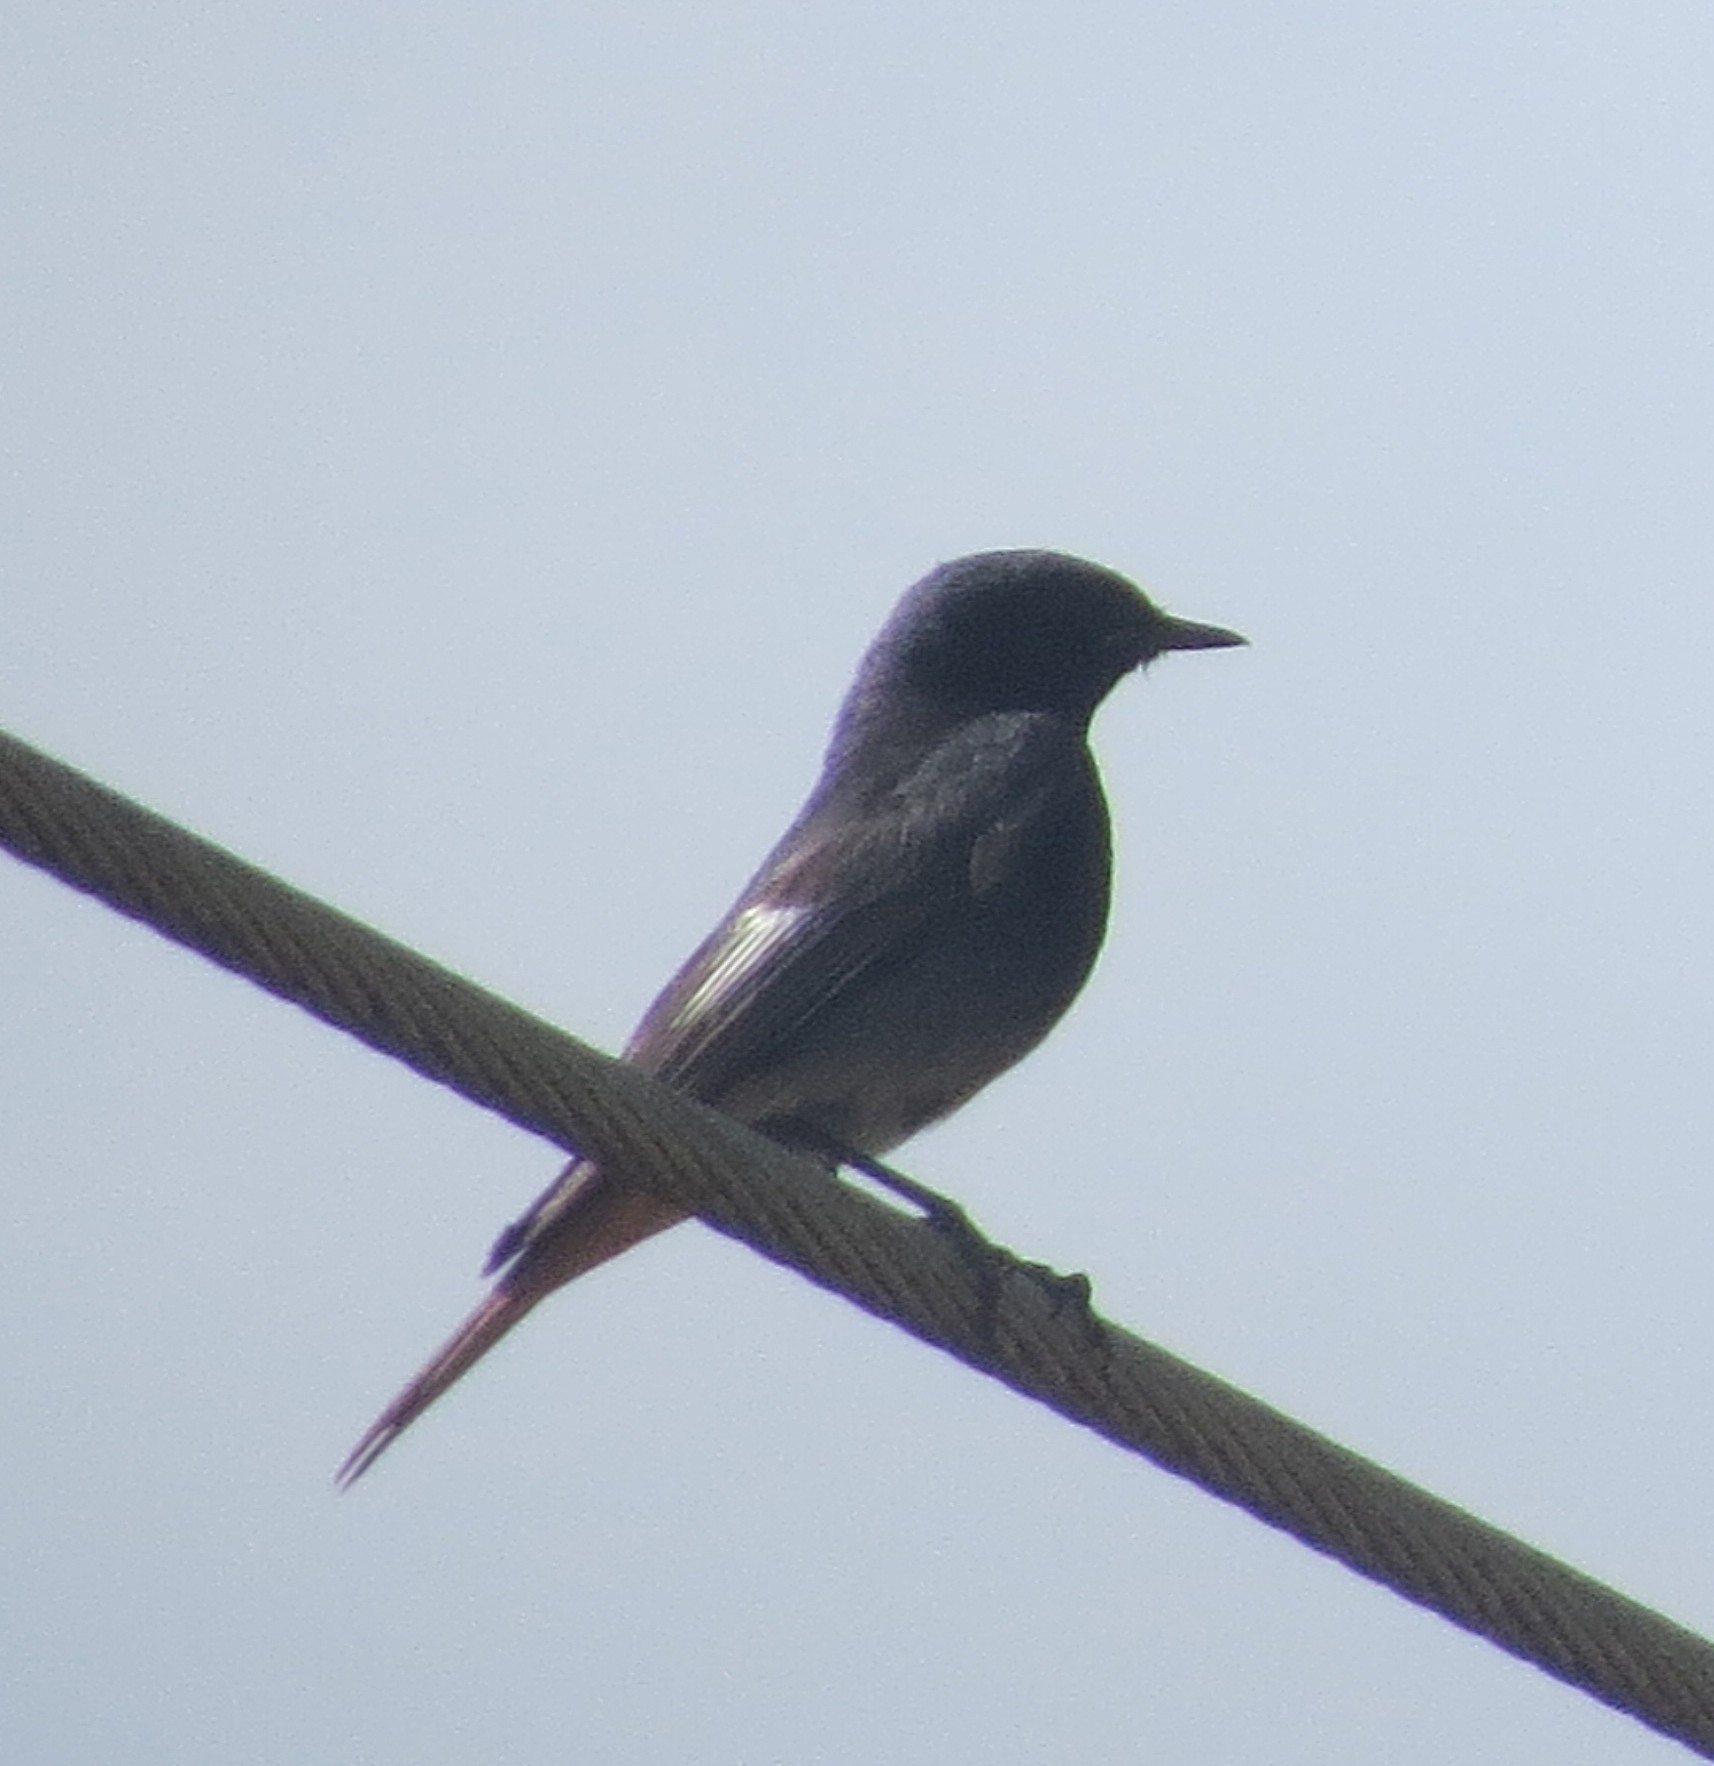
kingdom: Animalia
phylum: Chordata
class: Aves
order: Passeriformes
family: Muscicapidae
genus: Phoenicurus
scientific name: Phoenicurus ochruros
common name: Black redstart
